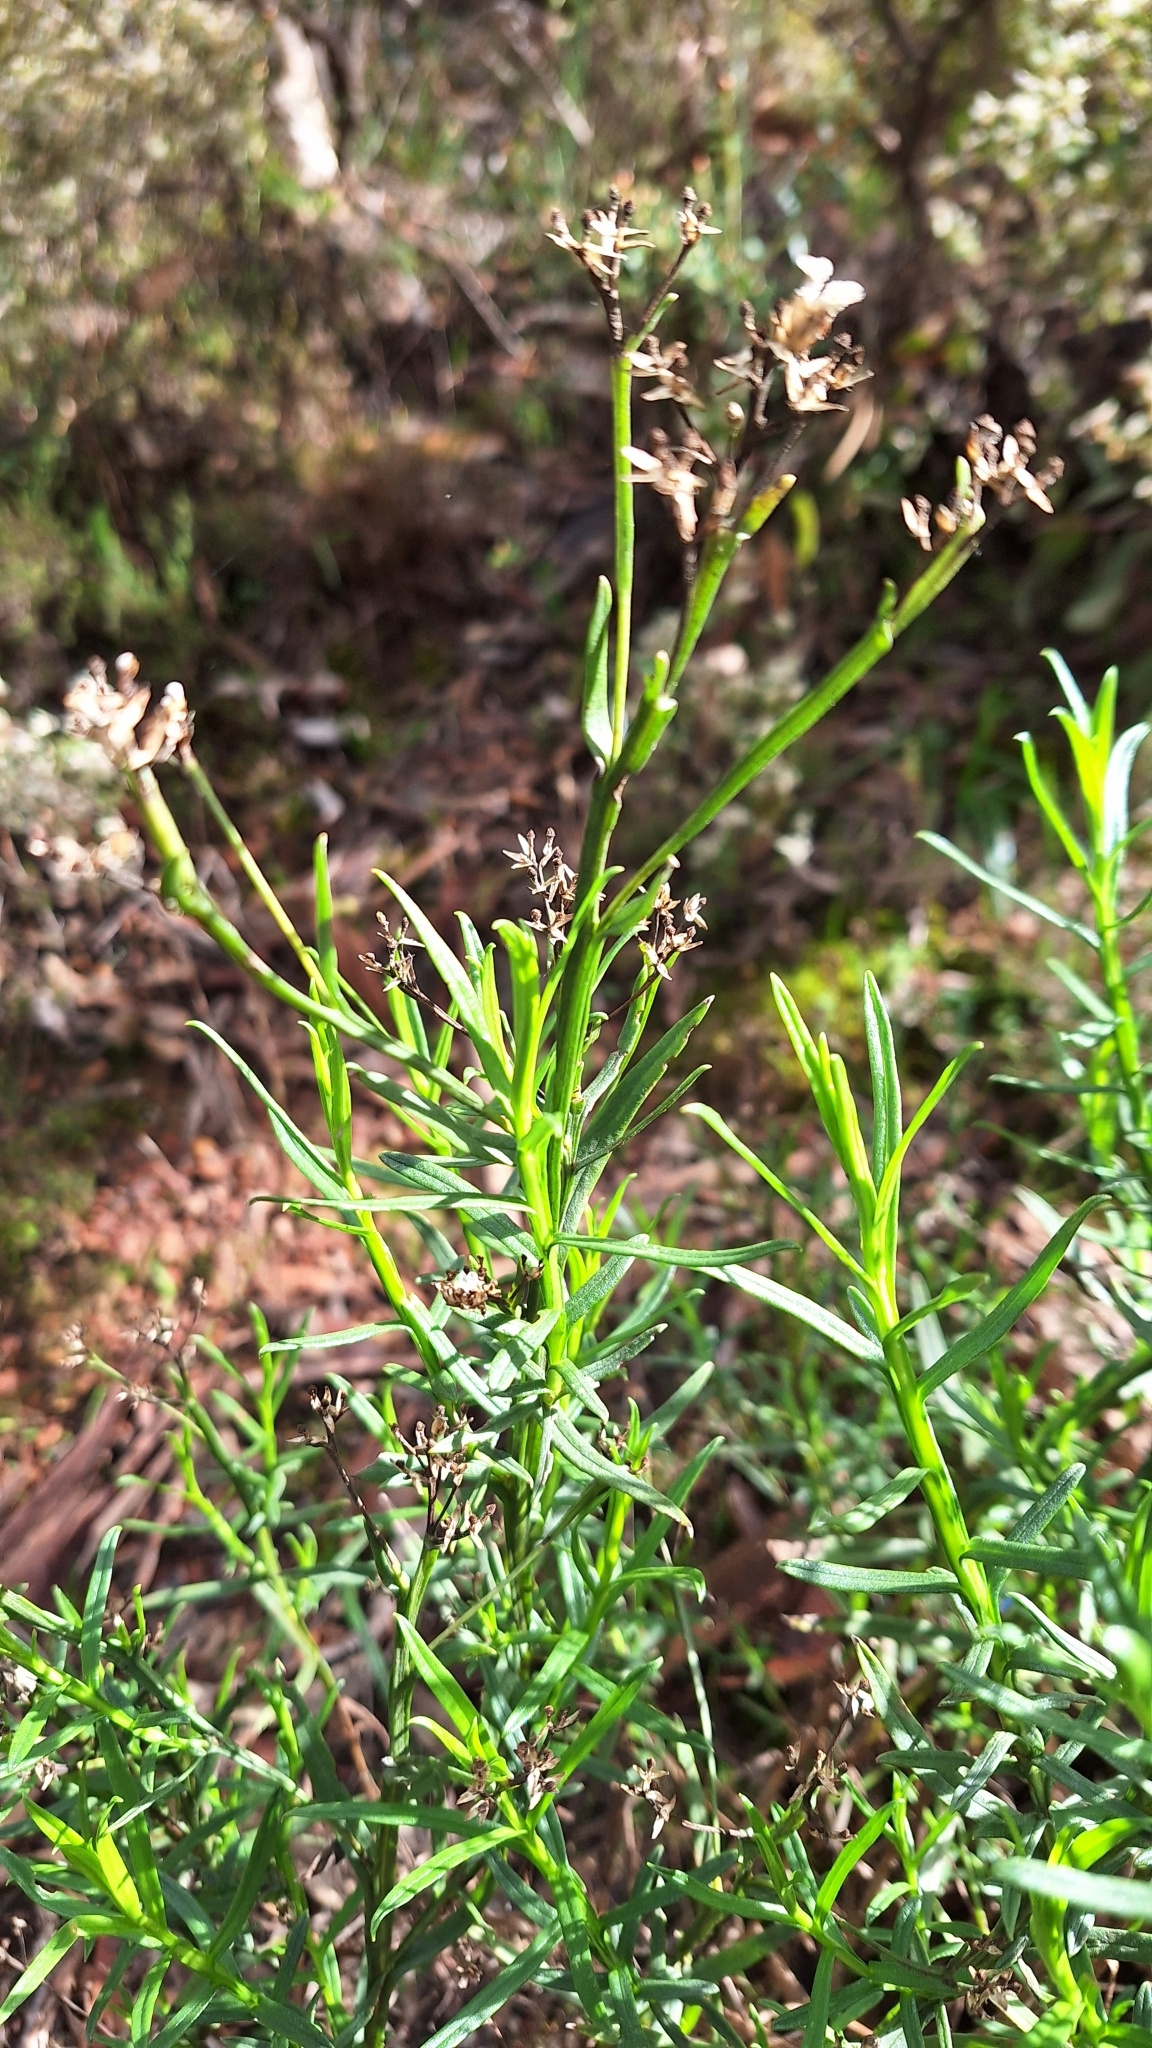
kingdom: Plantae
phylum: Tracheophyta
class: Magnoliopsida
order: Asterales
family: Asteraceae
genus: Ixodia
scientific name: Ixodia achillaeoides
